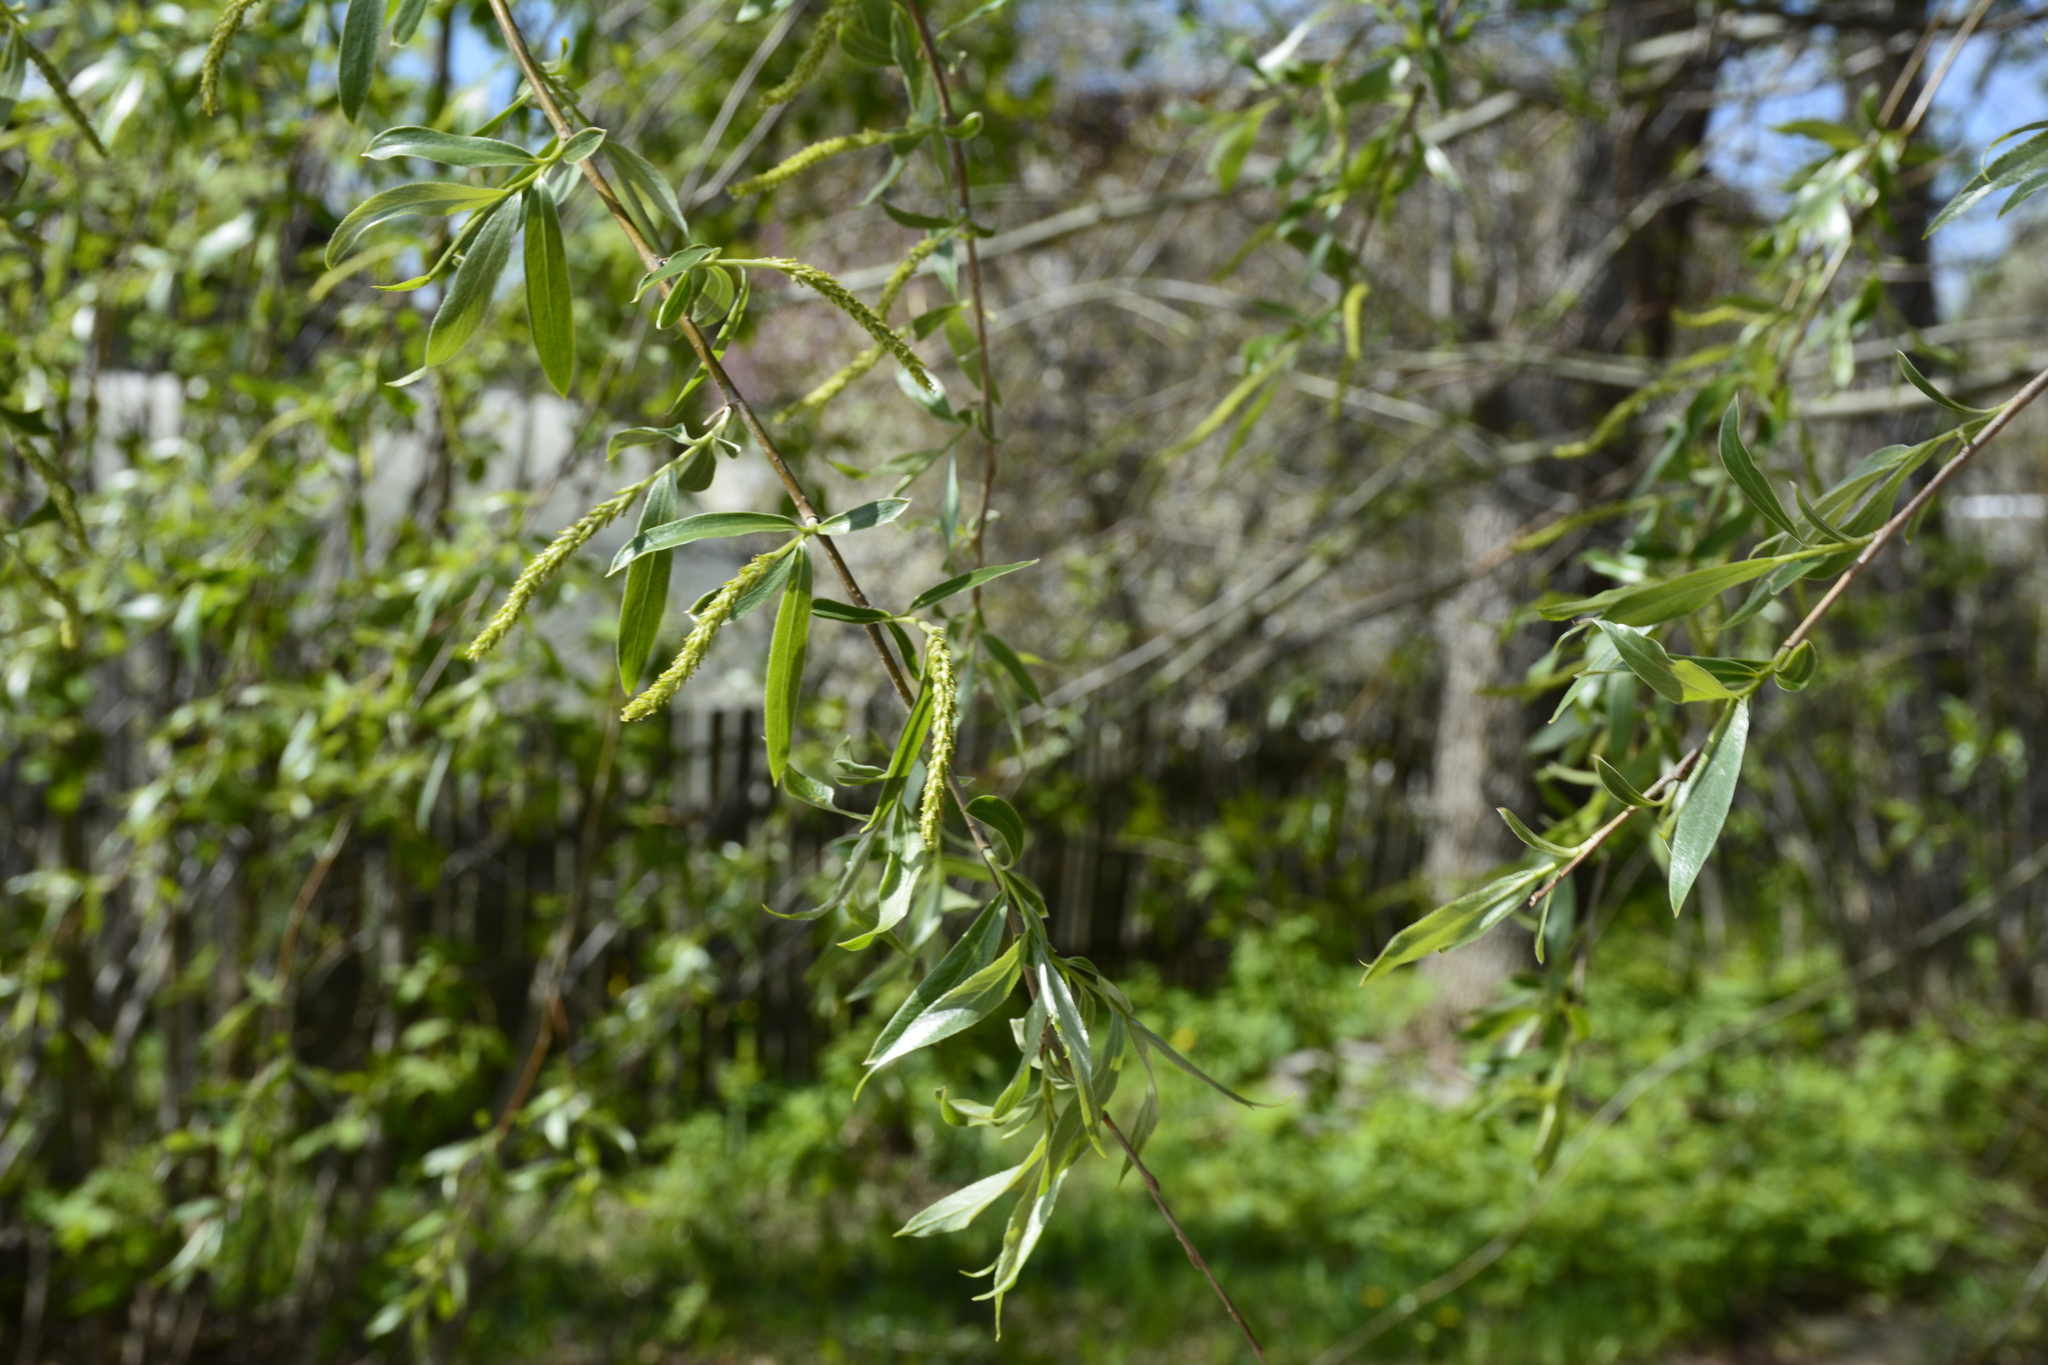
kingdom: Plantae
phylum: Tracheophyta
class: Magnoliopsida
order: Malpighiales
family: Salicaceae
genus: Salix
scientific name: Salix alba
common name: White willow
